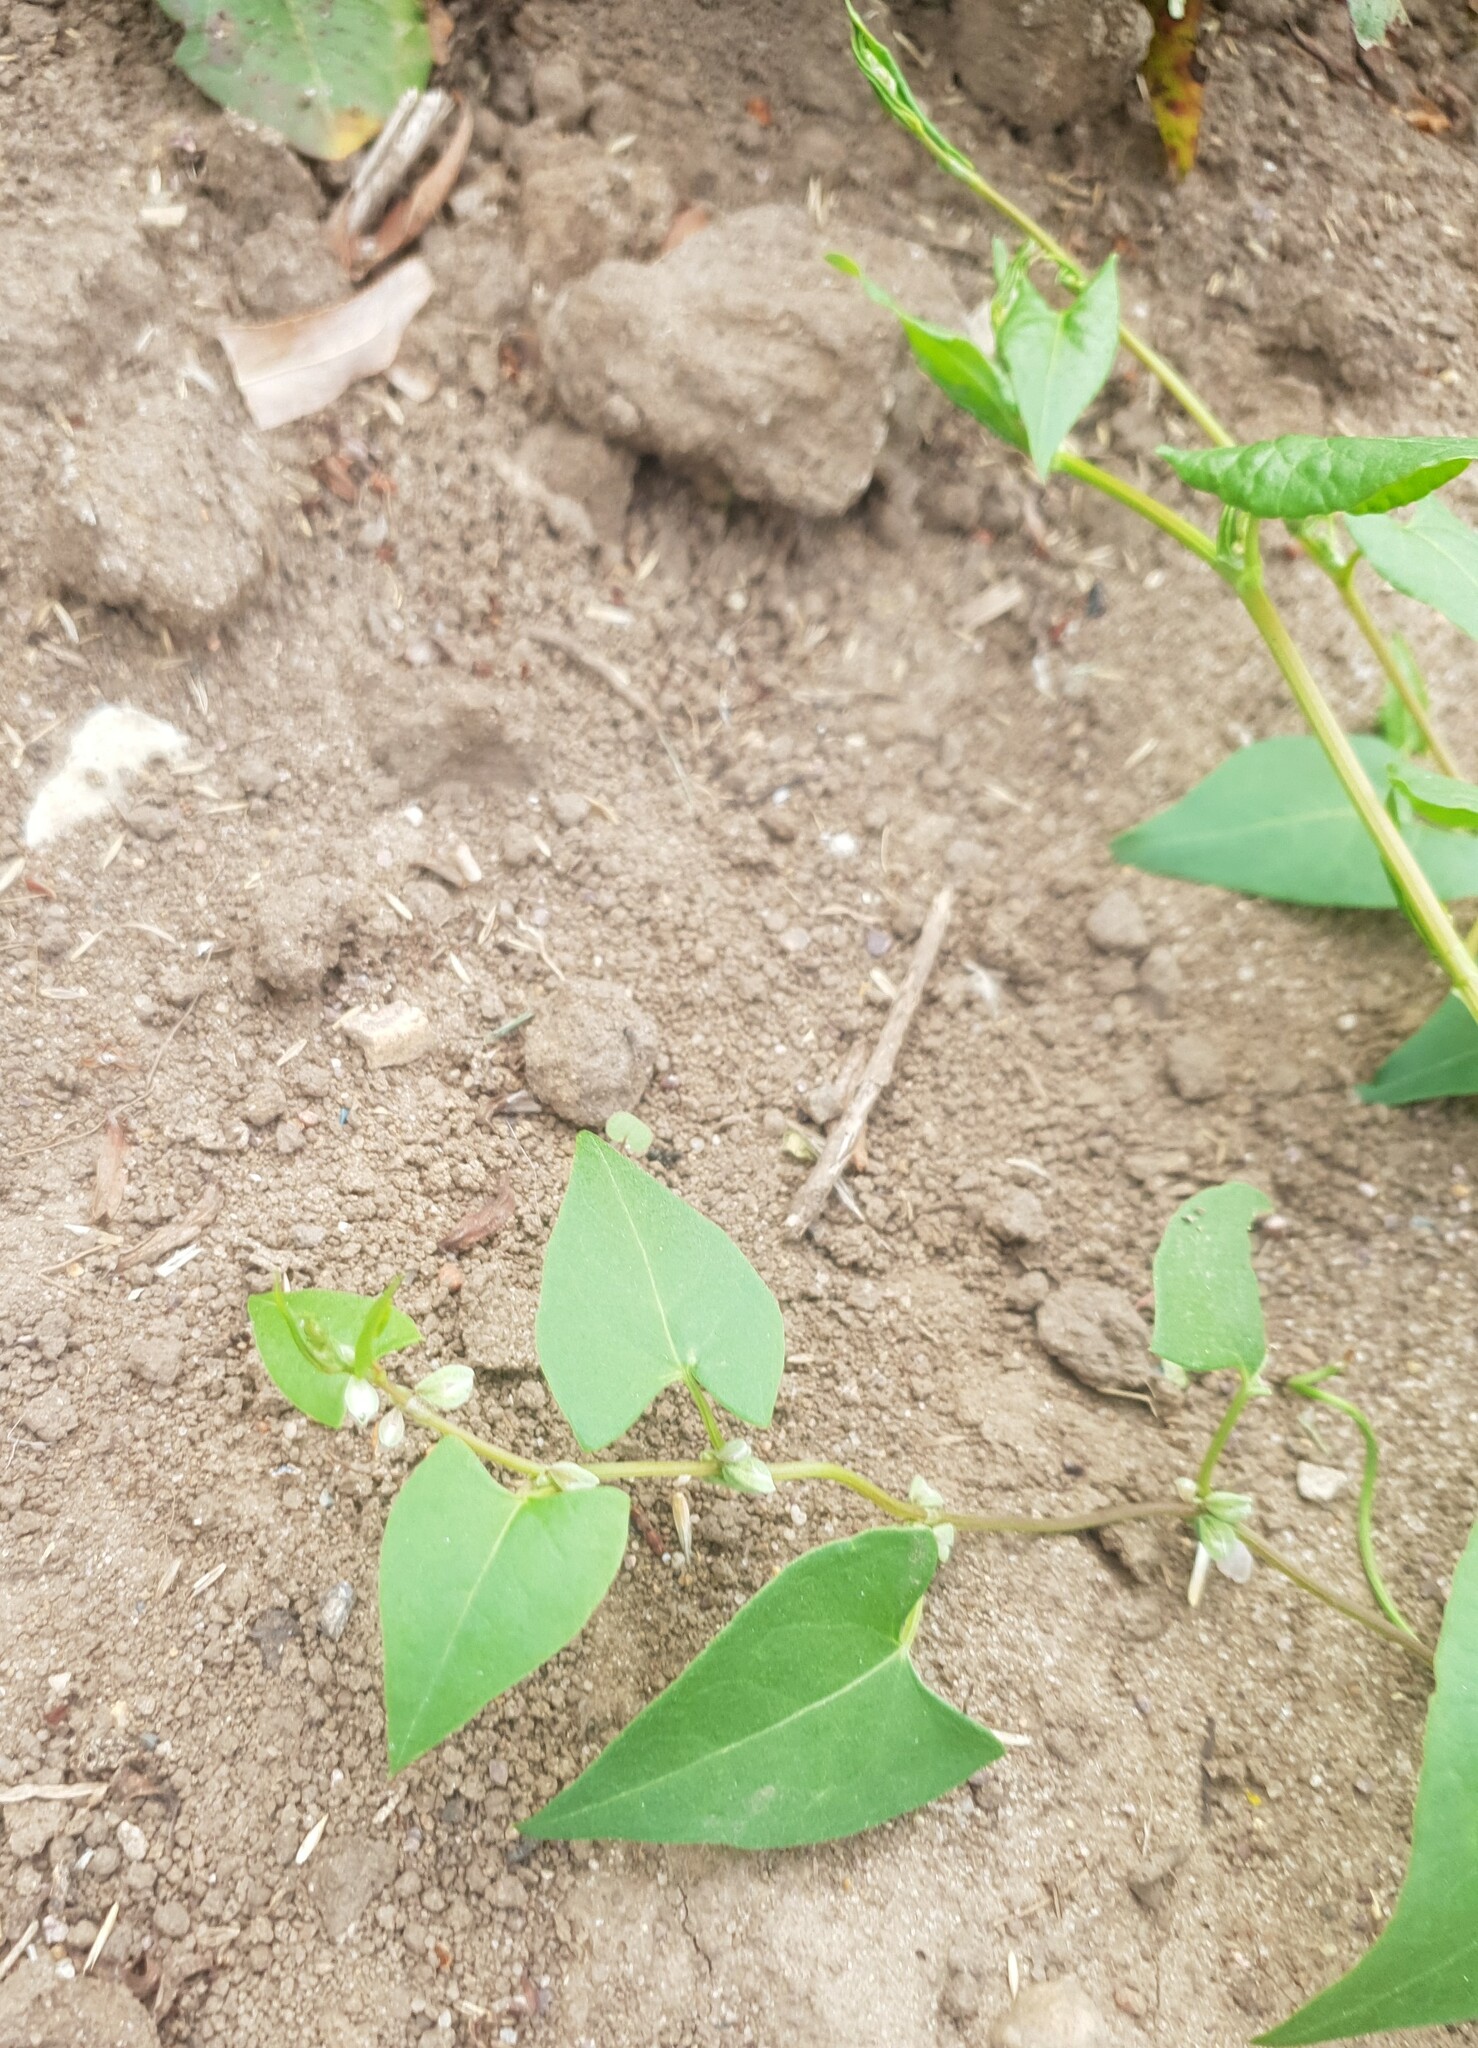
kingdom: Plantae
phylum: Tracheophyta
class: Magnoliopsida
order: Caryophyllales
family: Polygonaceae
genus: Fallopia
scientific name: Fallopia convolvulus
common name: Black bindweed
